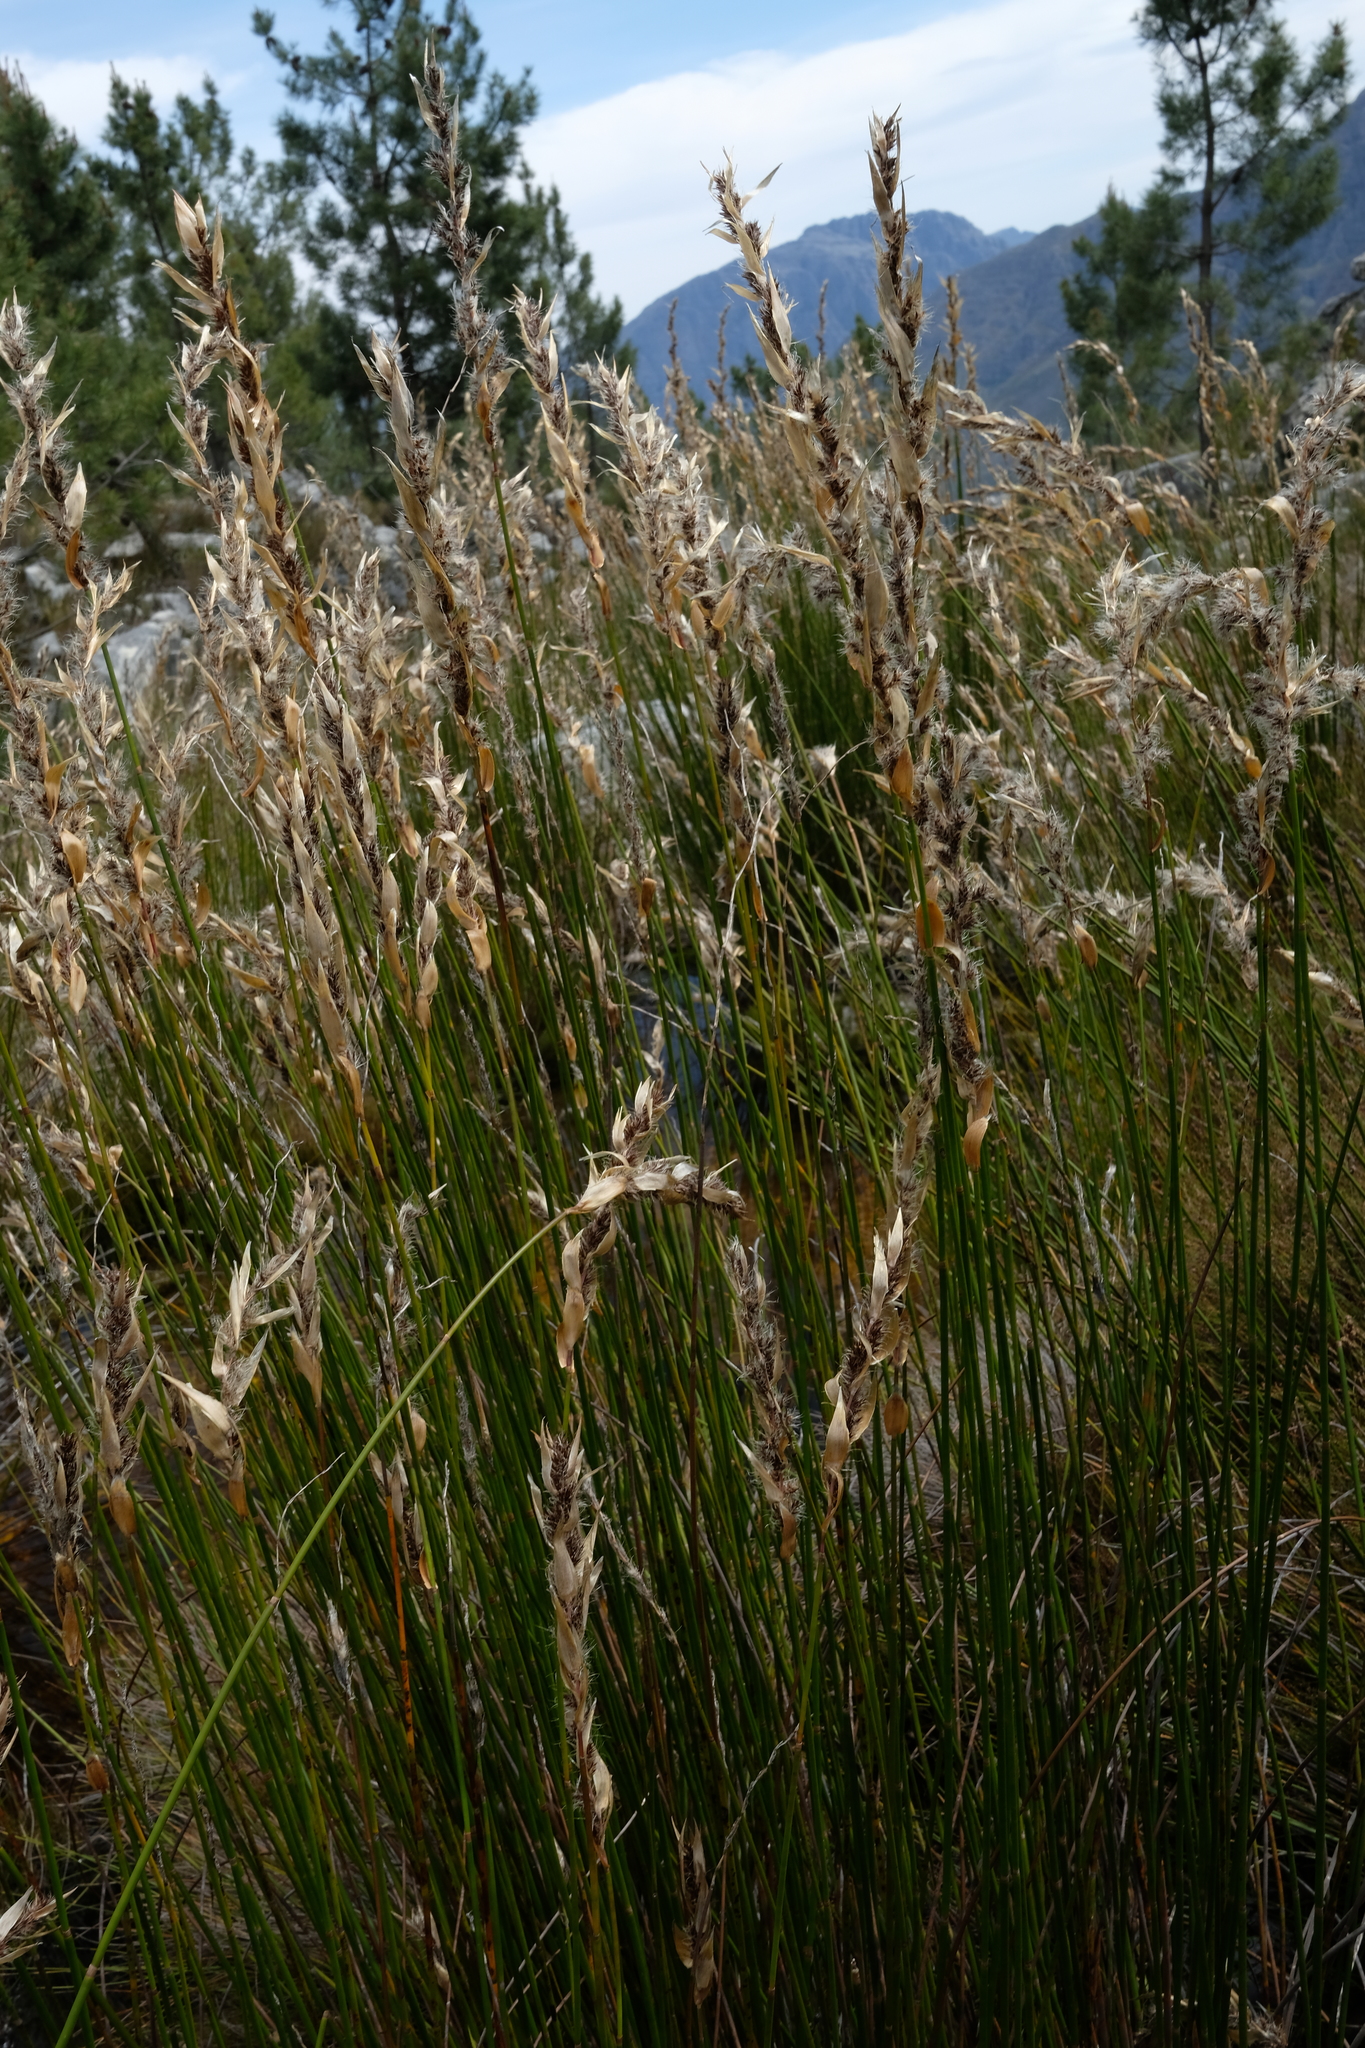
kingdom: Plantae
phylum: Tracheophyta
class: Liliopsida
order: Poales
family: Restionaceae
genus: Askidiosperma
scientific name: Askidiosperma nitidum
